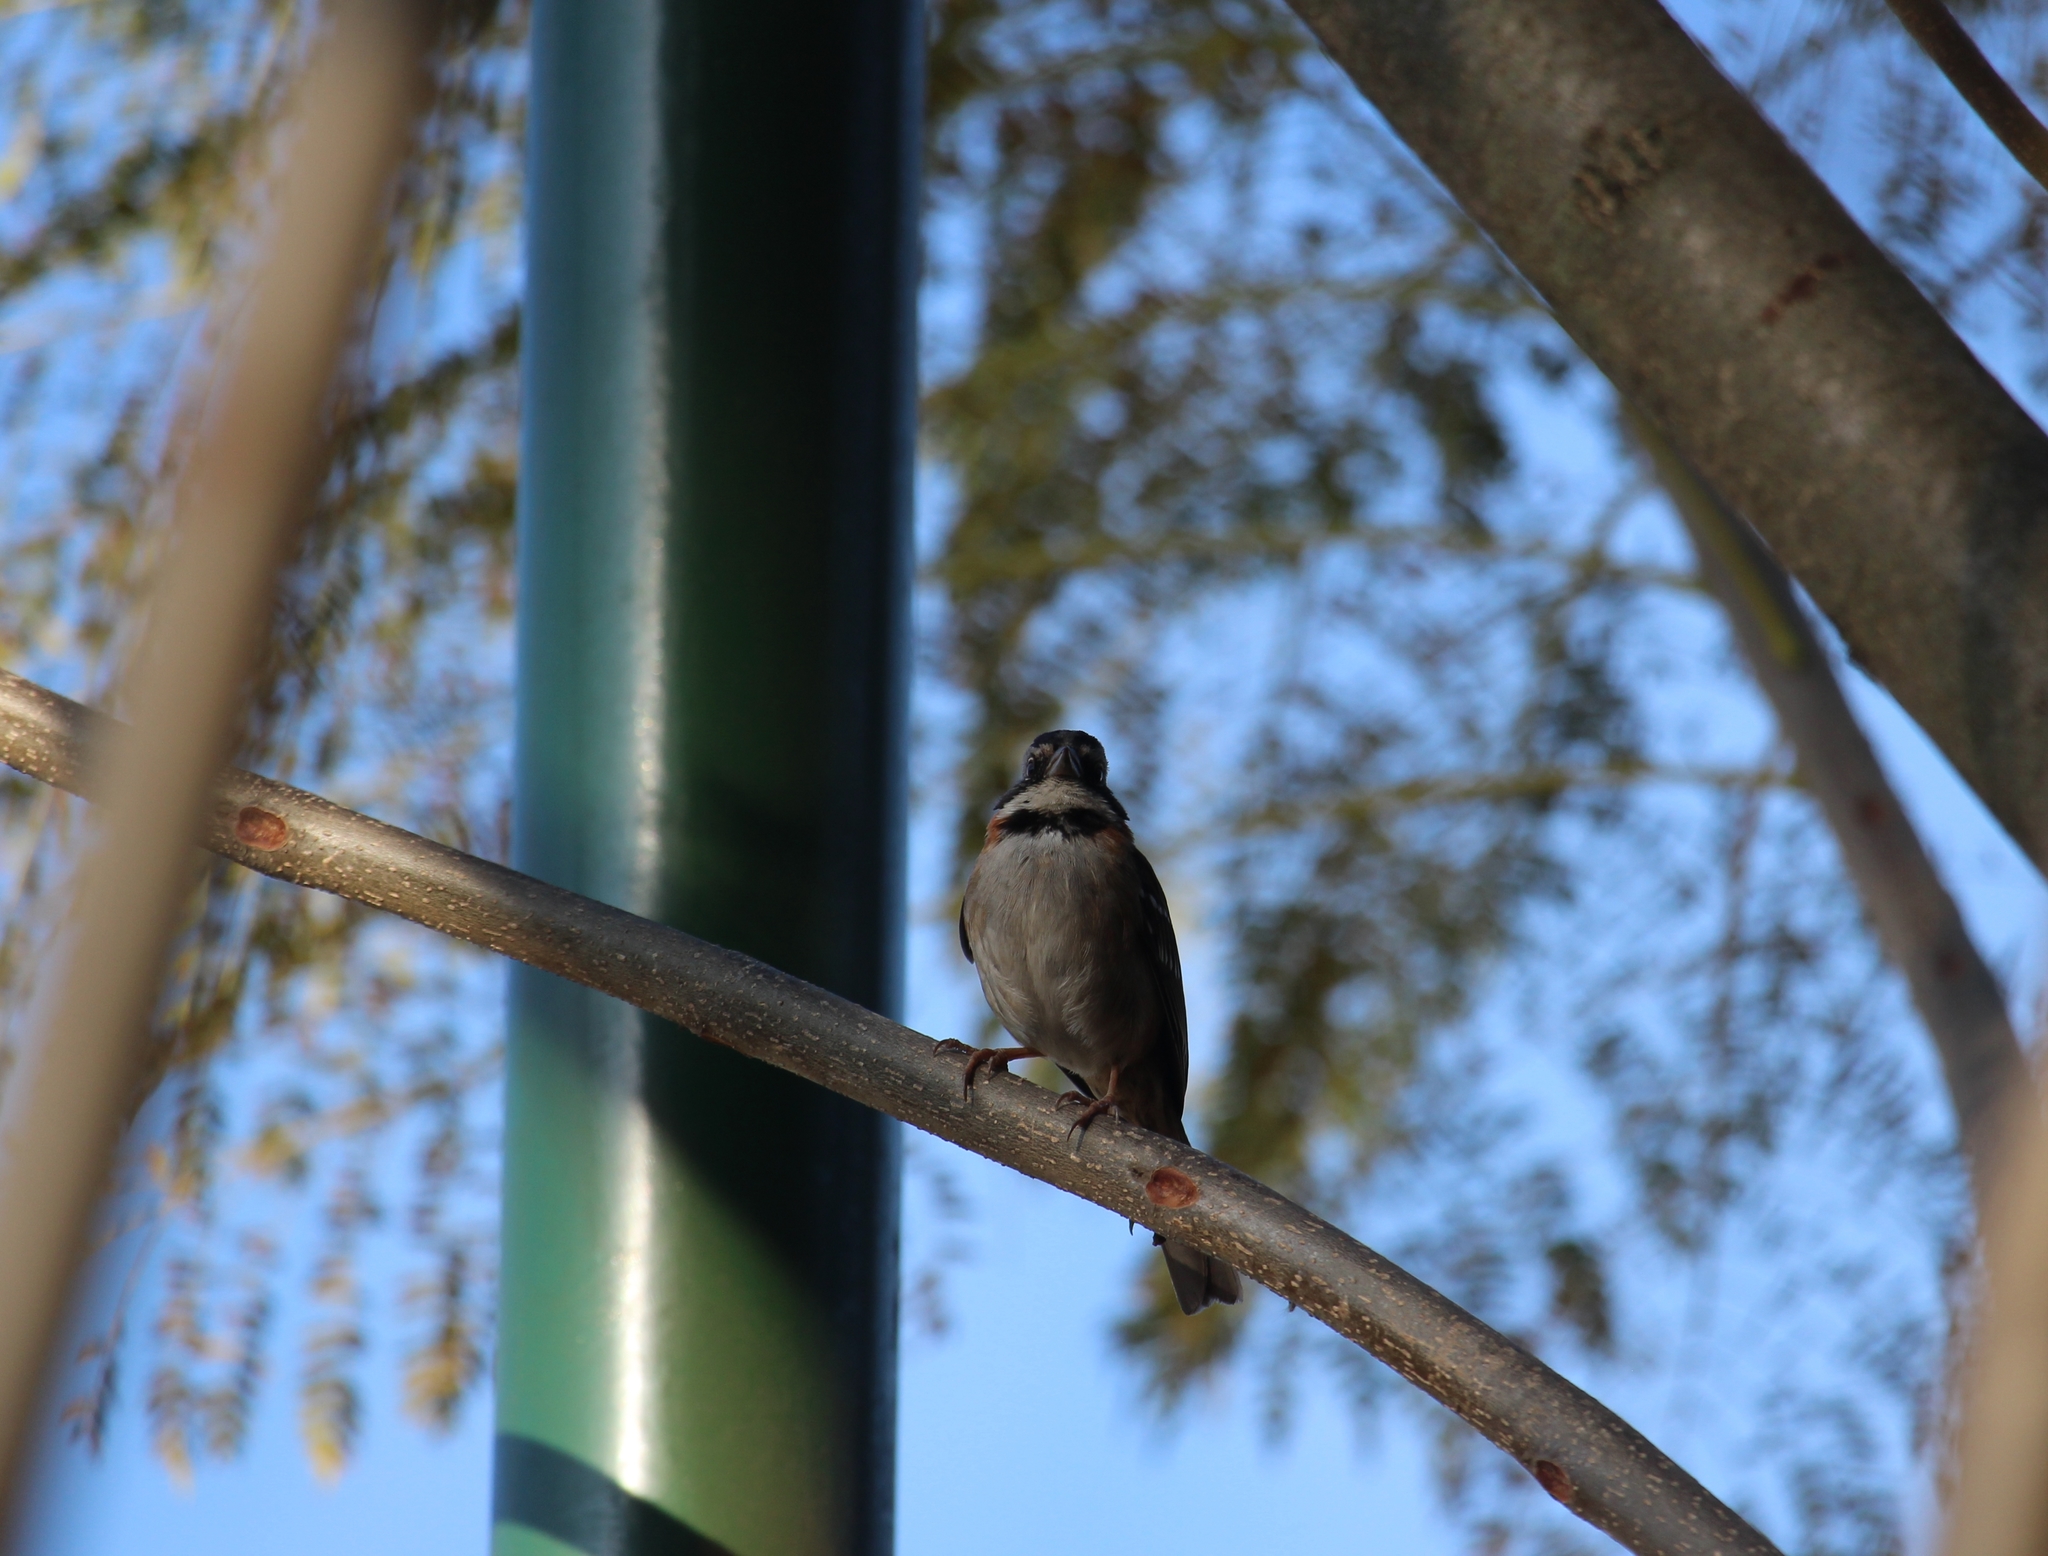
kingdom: Animalia
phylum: Chordata
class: Aves
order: Passeriformes
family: Passerellidae
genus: Zonotrichia
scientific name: Zonotrichia capensis
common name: Rufous-collared sparrow
